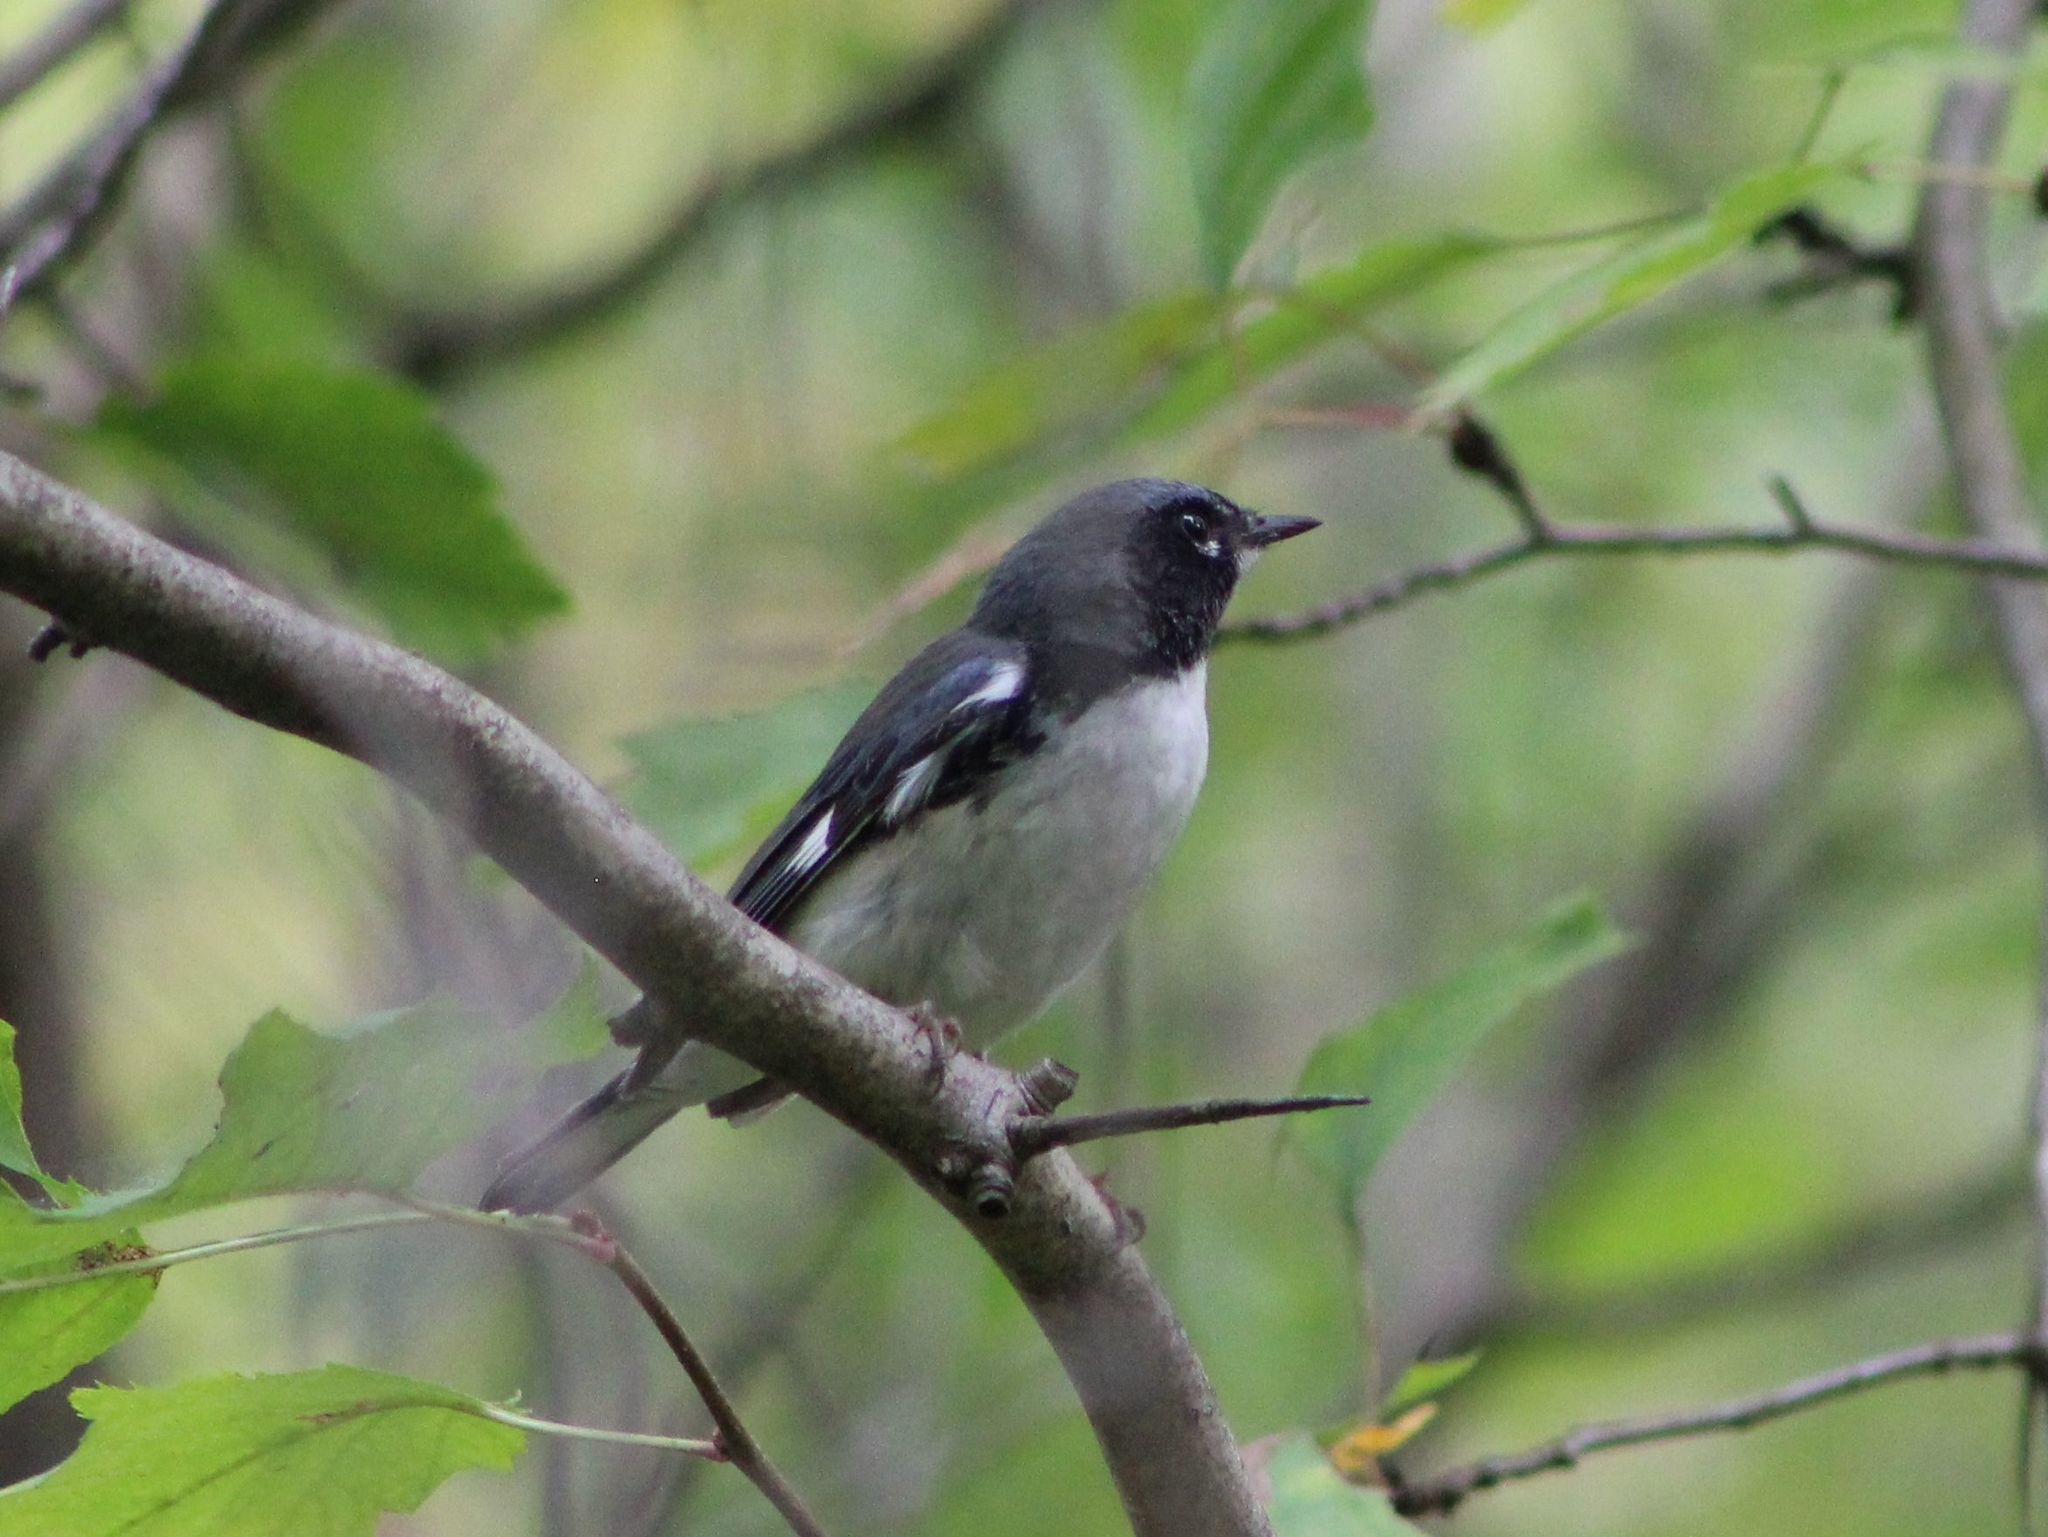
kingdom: Animalia
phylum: Chordata
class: Aves
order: Passeriformes
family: Parulidae
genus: Setophaga
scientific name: Setophaga caerulescens
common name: Black-throated blue warbler
